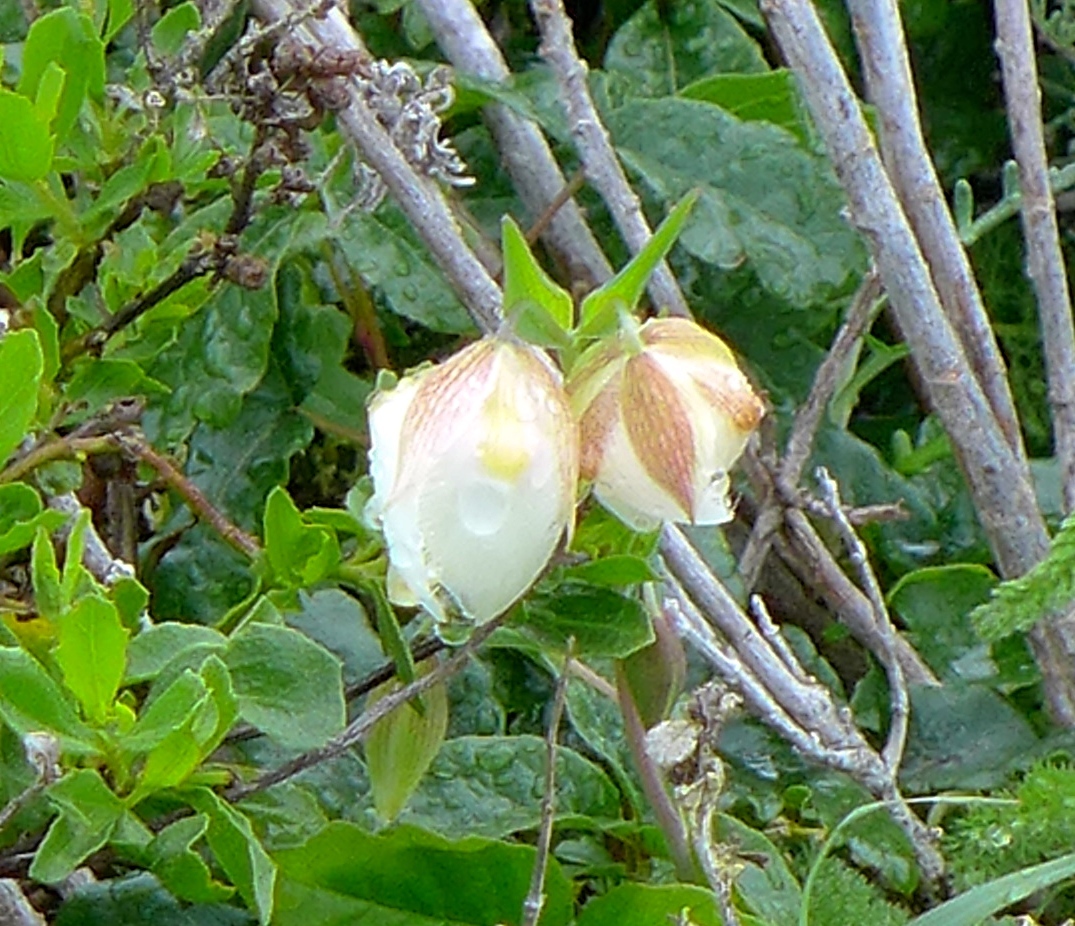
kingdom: Plantae
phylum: Tracheophyta
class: Liliopsida
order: Liliales
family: Liliaceae
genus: Calochortus
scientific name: Calochortus albus
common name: Fairy-lantern
